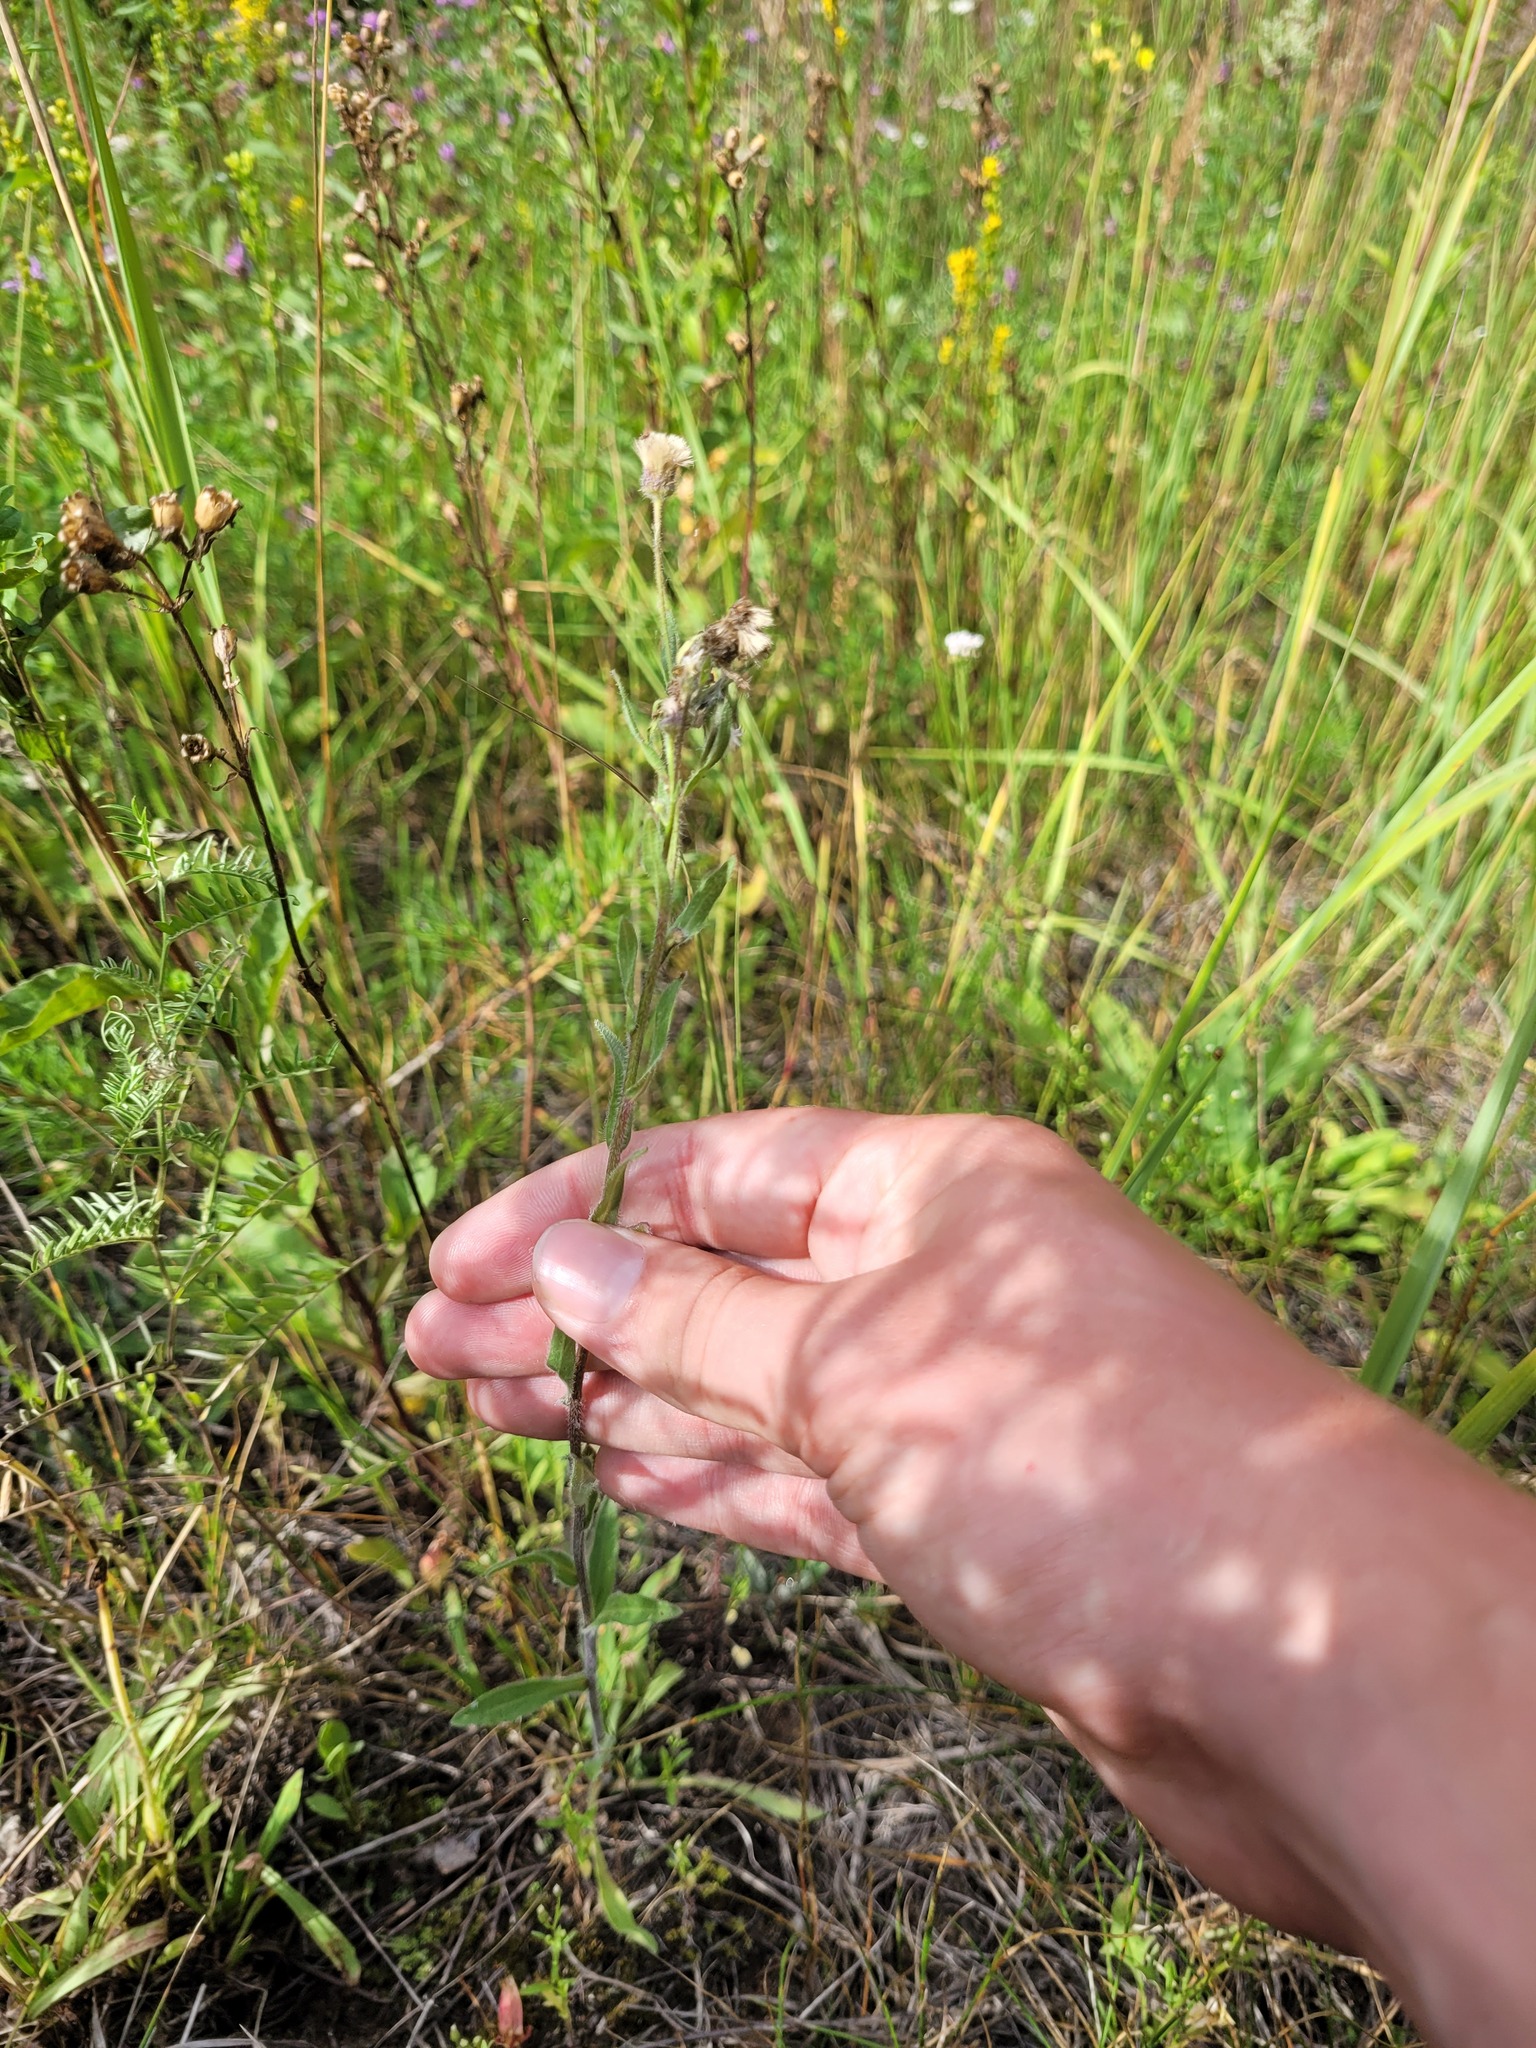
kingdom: Plantae
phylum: Tracheophyta
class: Magnoliopsida
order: Asterales
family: Asteraceae
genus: Erigeron
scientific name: Erigeron acris
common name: Blue fleabane
